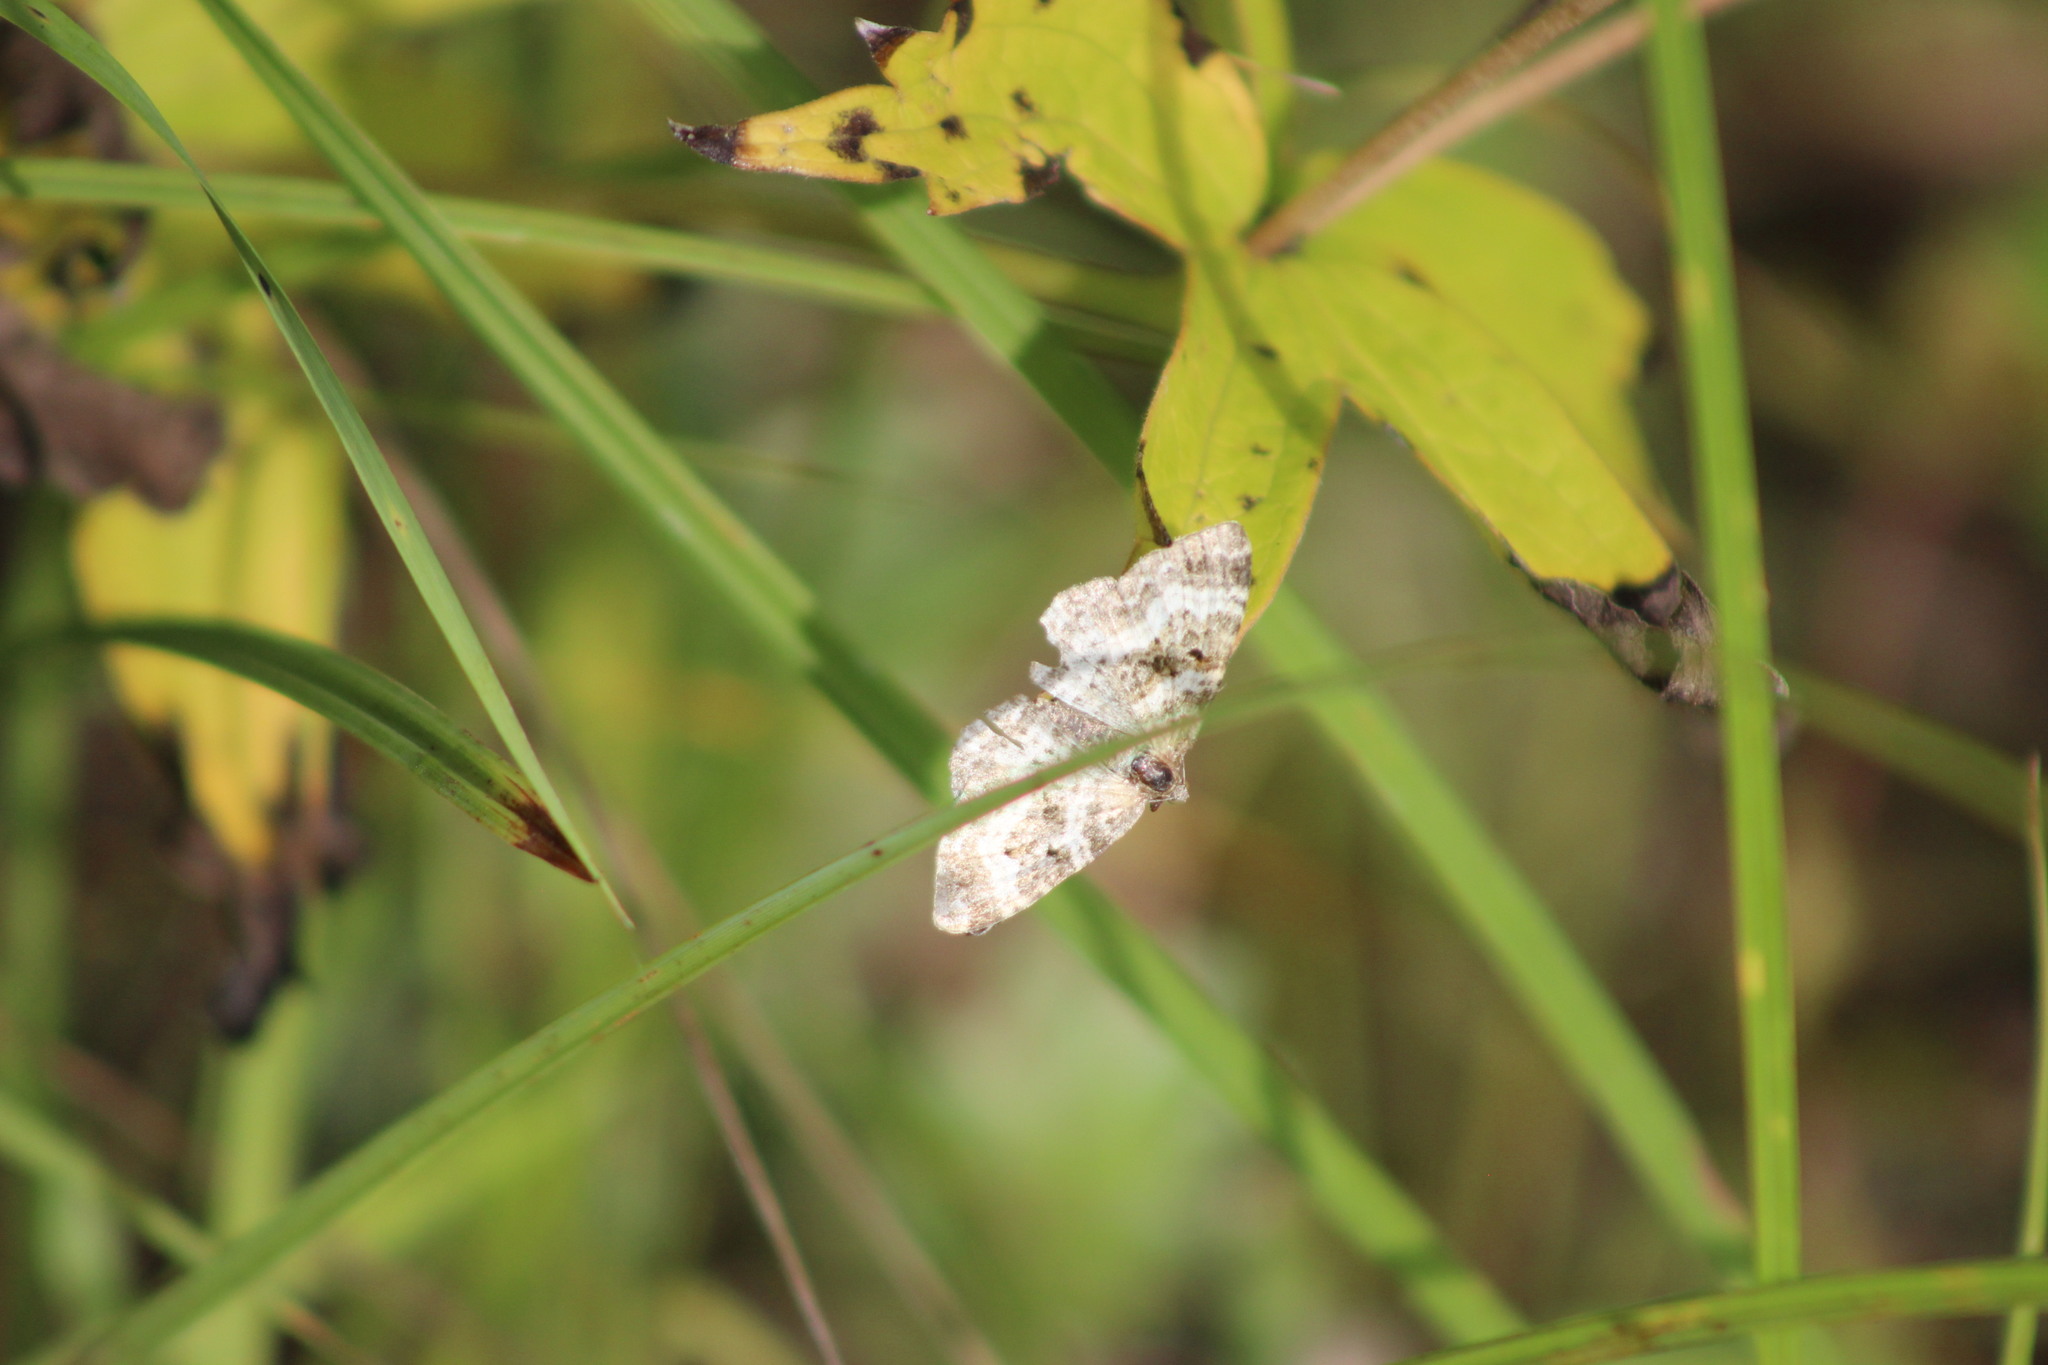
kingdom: Animalia
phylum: Arthropoda
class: Insecta
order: Lepidoptera
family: Geometridae
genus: Epirrhoe
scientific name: Epirrhoe alternata
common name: Common carpet
